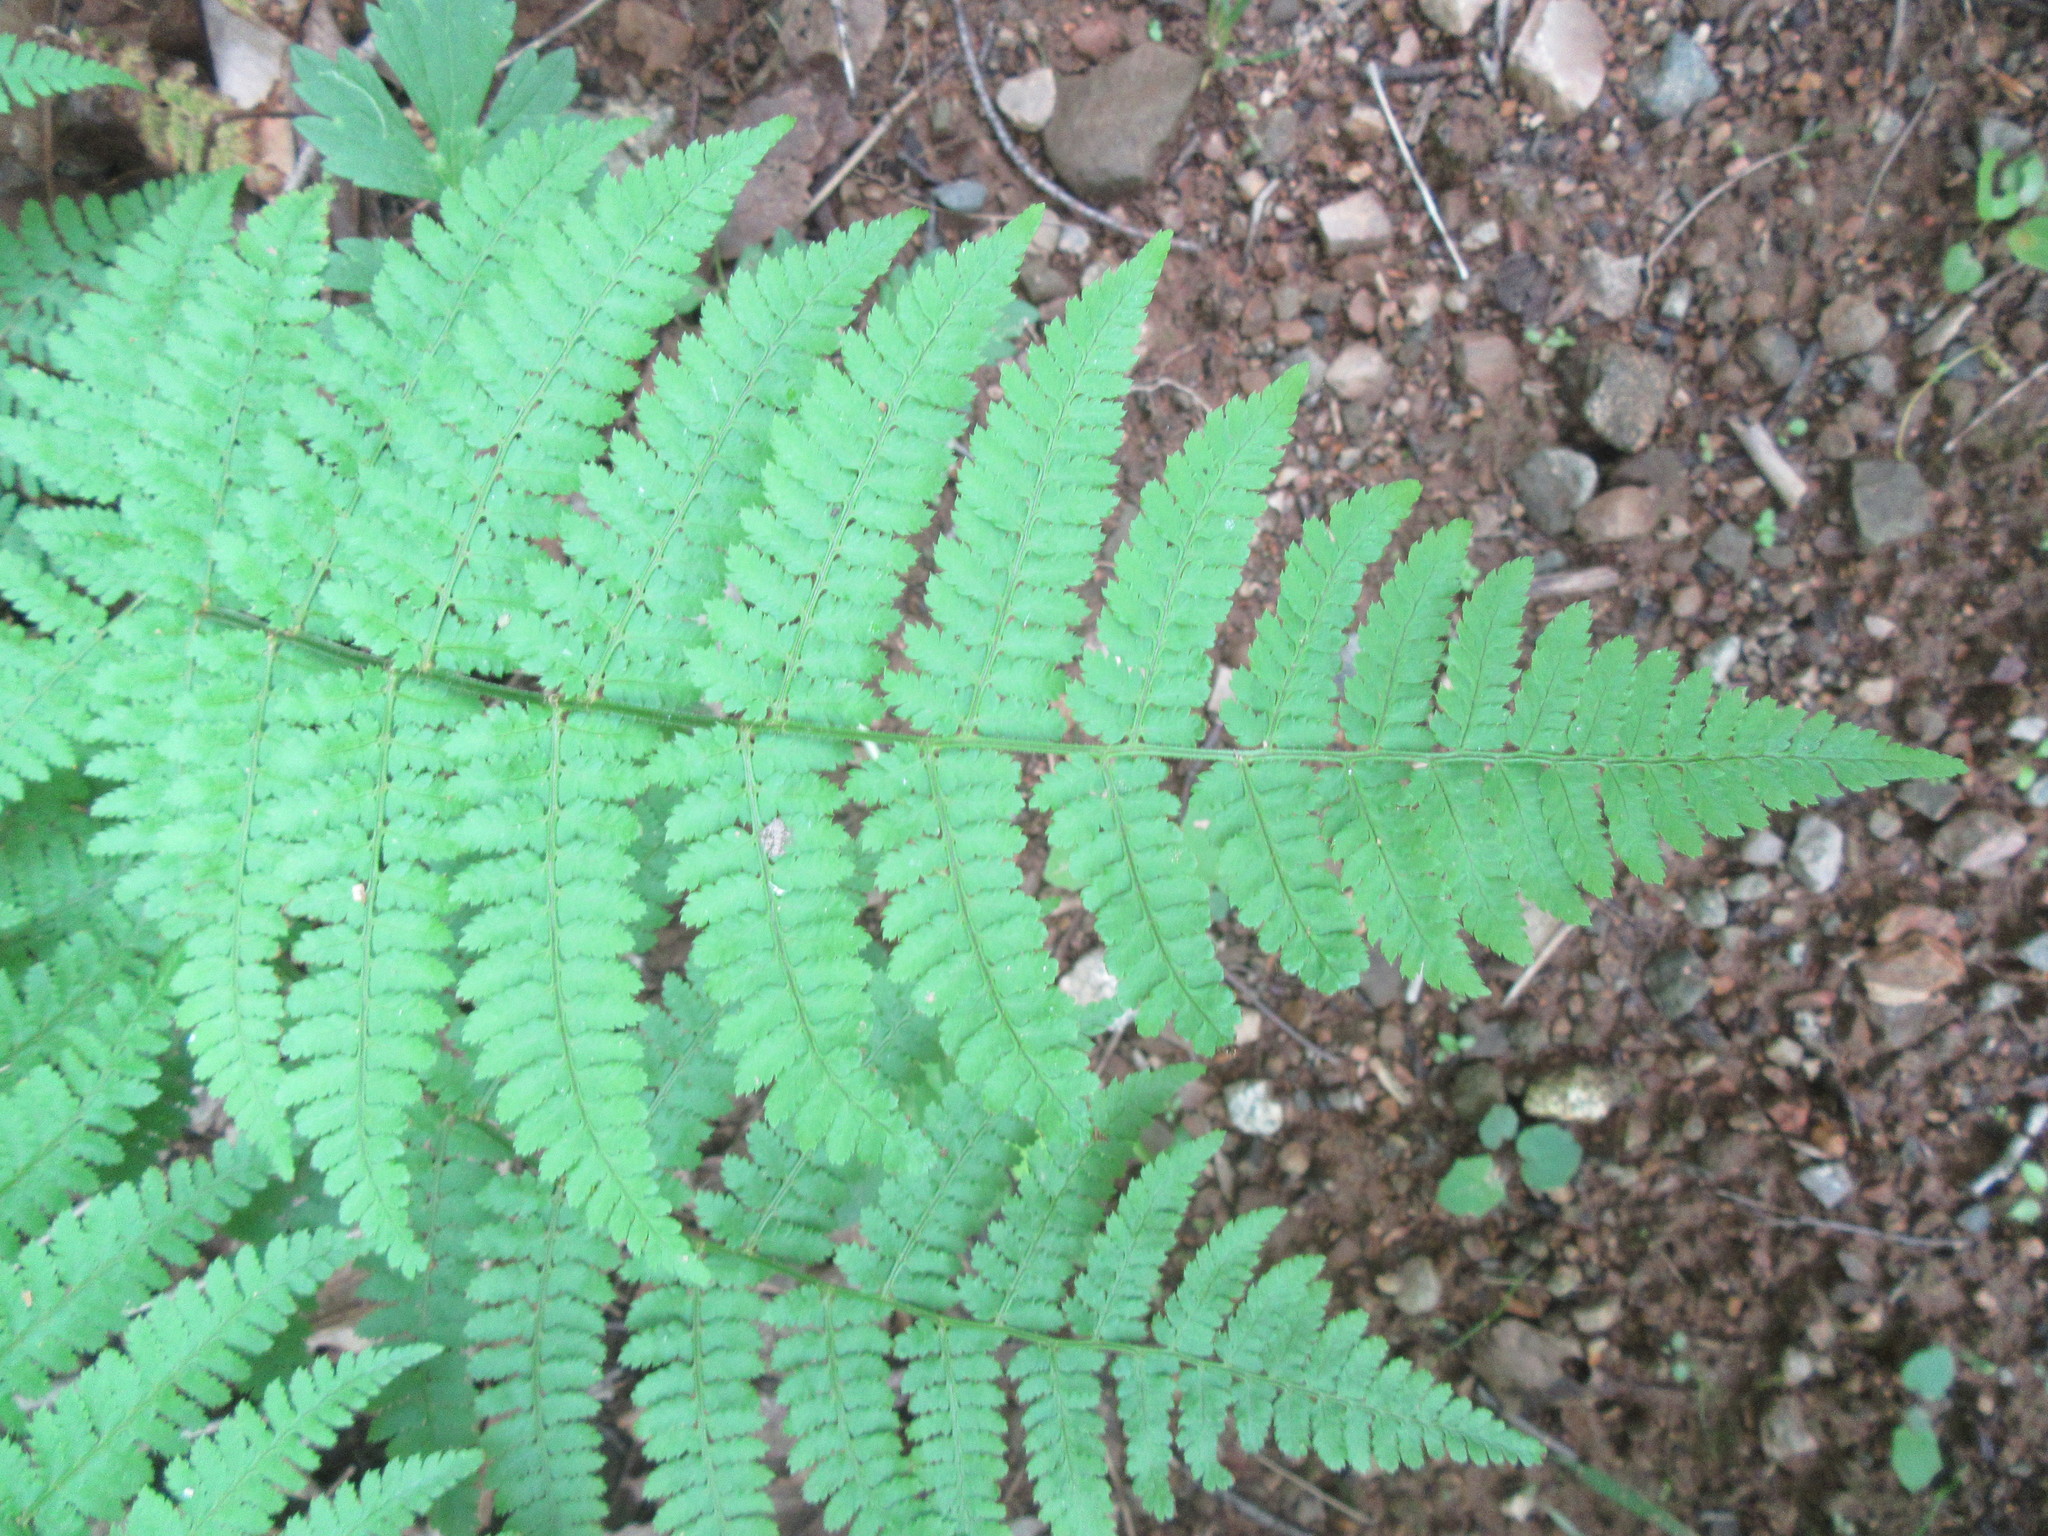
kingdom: Plantae
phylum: Tracheophyta
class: Polypodiopsida
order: Polypodiales
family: Dryopteridaceae
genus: Dryopteris
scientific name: Dryopteris intermedia
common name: Evergreen wood fern
